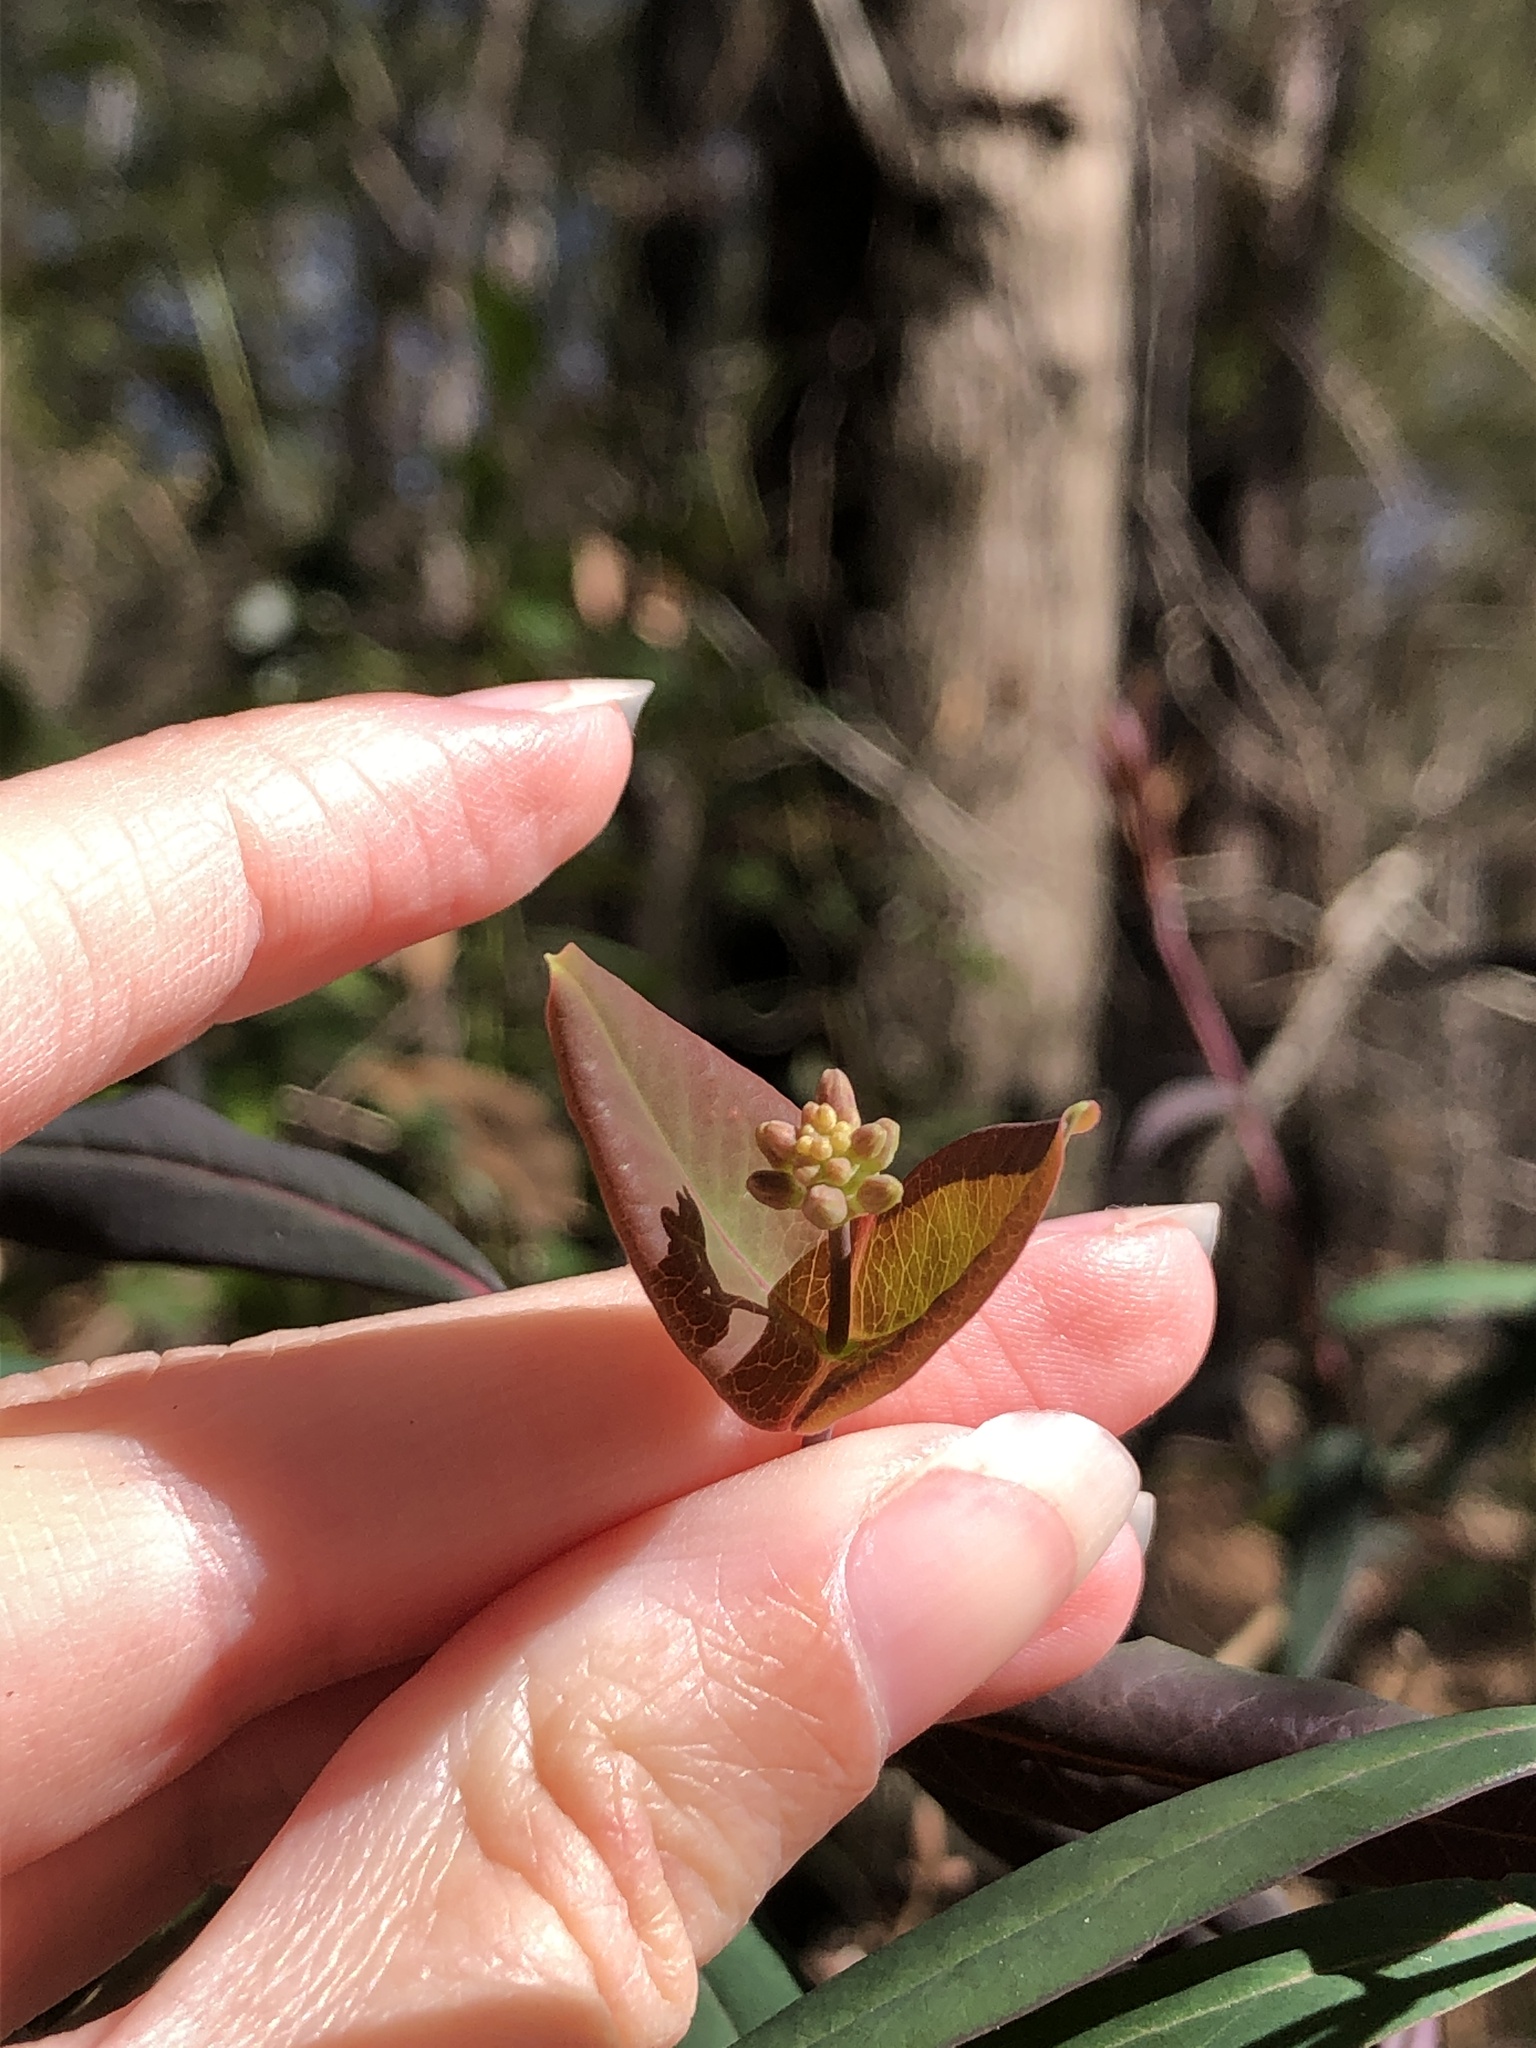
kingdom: Plantae
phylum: Tracheophyta
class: Magnoliopsida
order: Dipsacales
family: Caprifoliaceae
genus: Lonicera
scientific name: Lonicera sempervirens
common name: Coral honeysuckle
